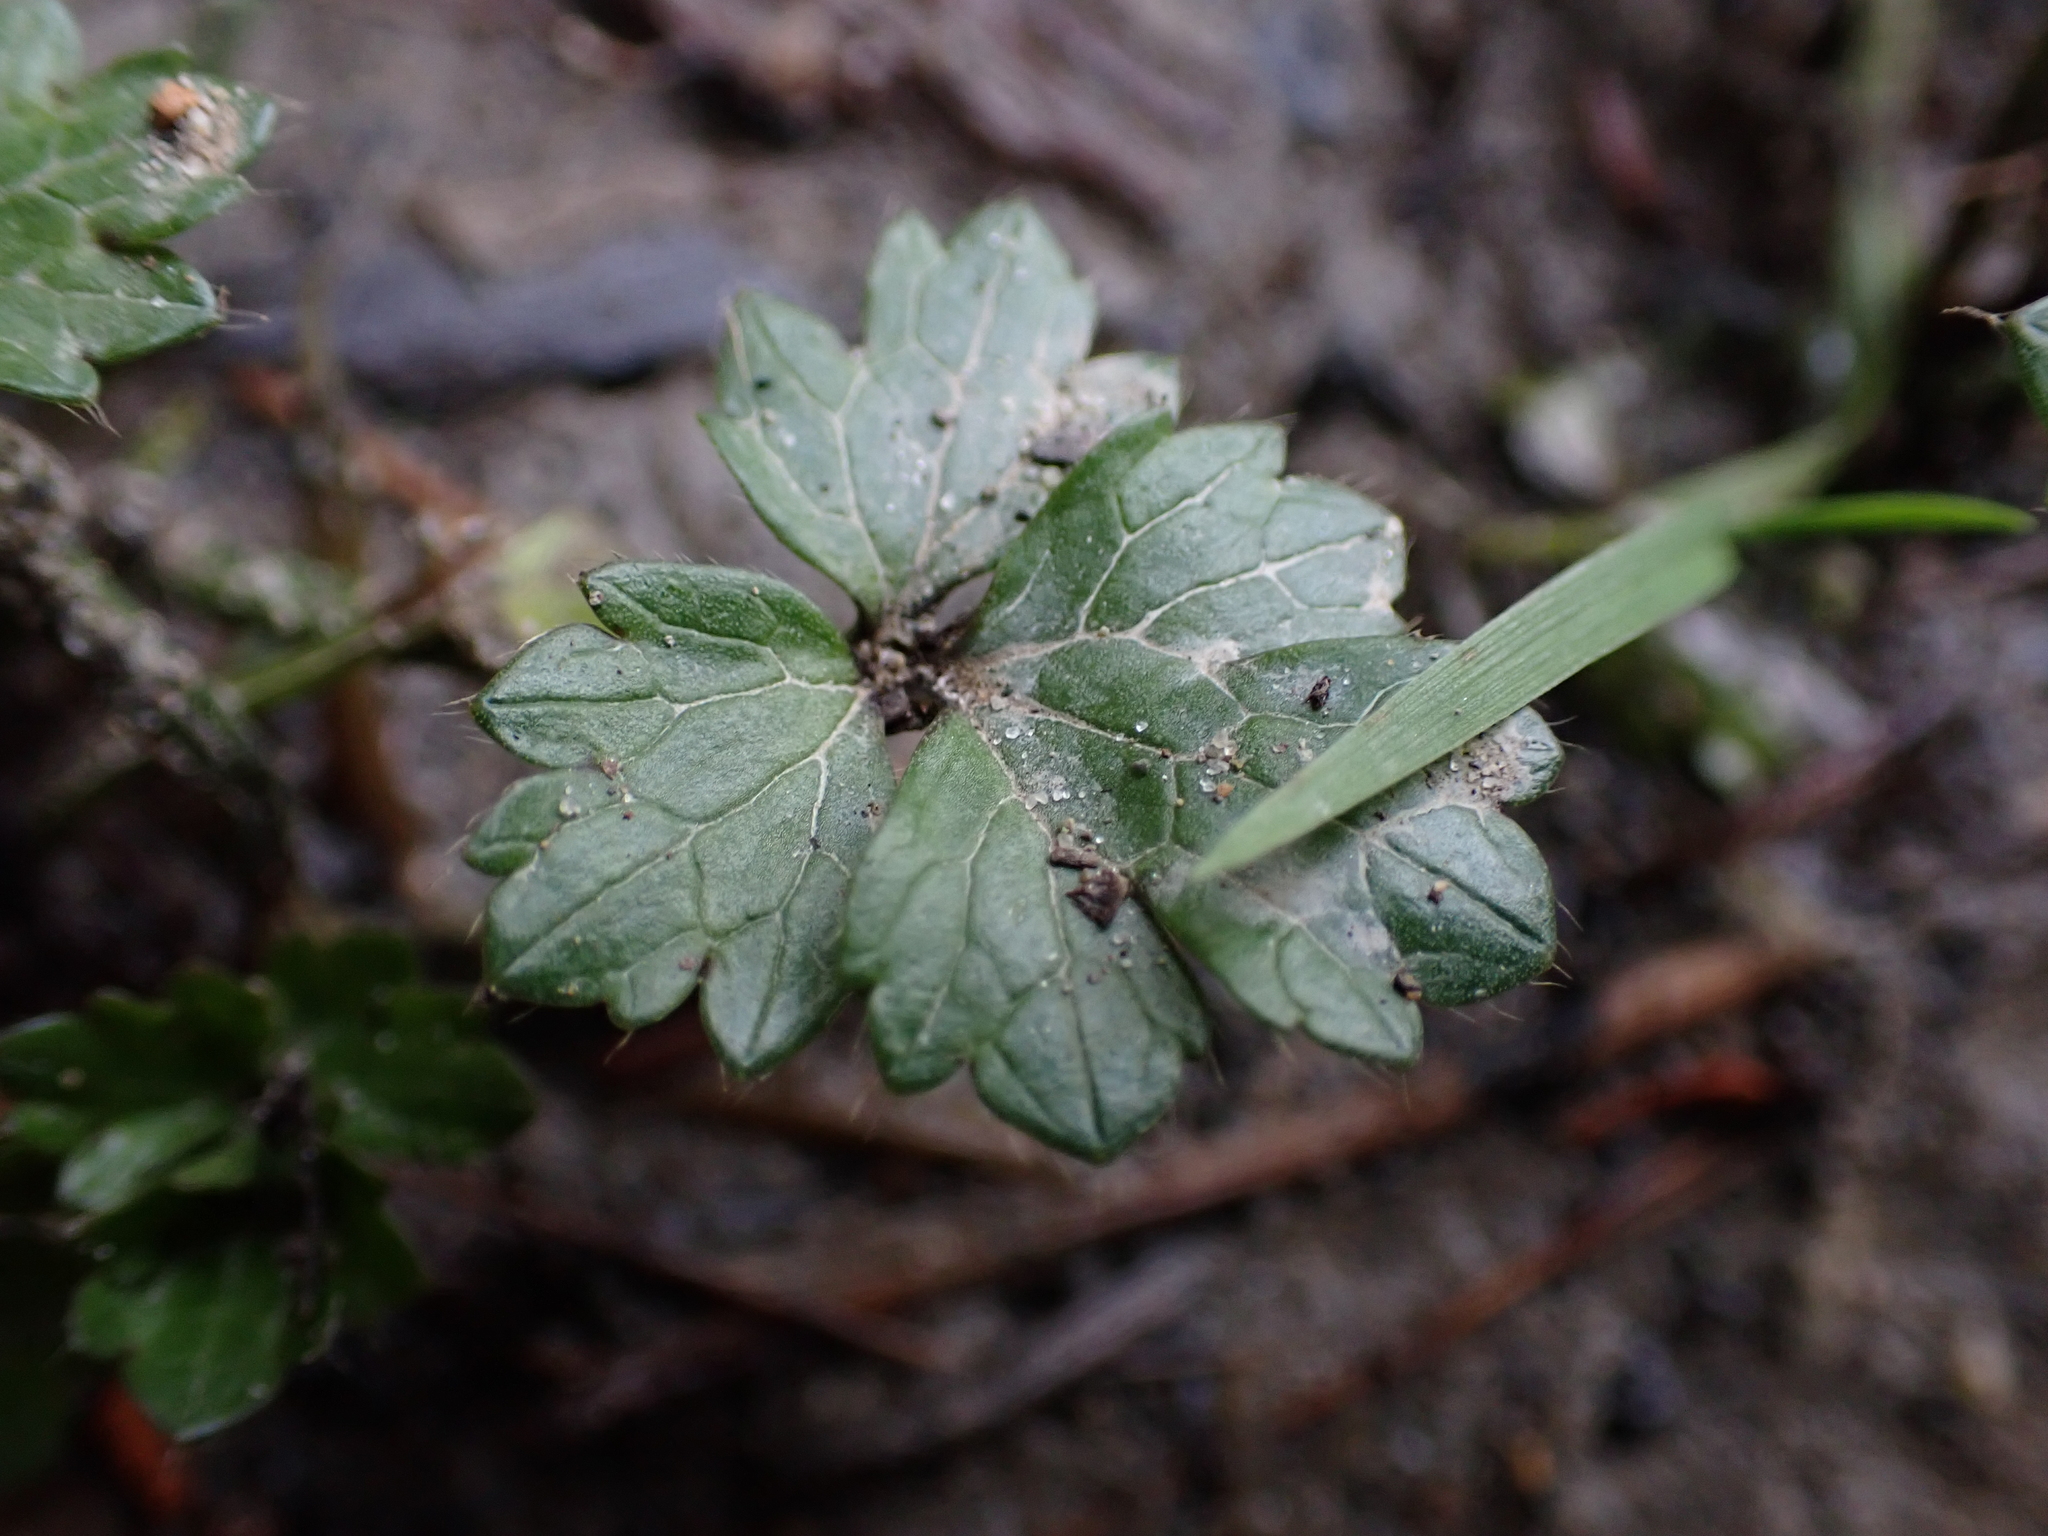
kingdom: Plantae
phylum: Tracheophyta
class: Magnoliopsida
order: Ranunculales
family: Ranunculaceae
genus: Ranunculus
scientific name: Ranunculus repens
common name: Creeping buttercup
